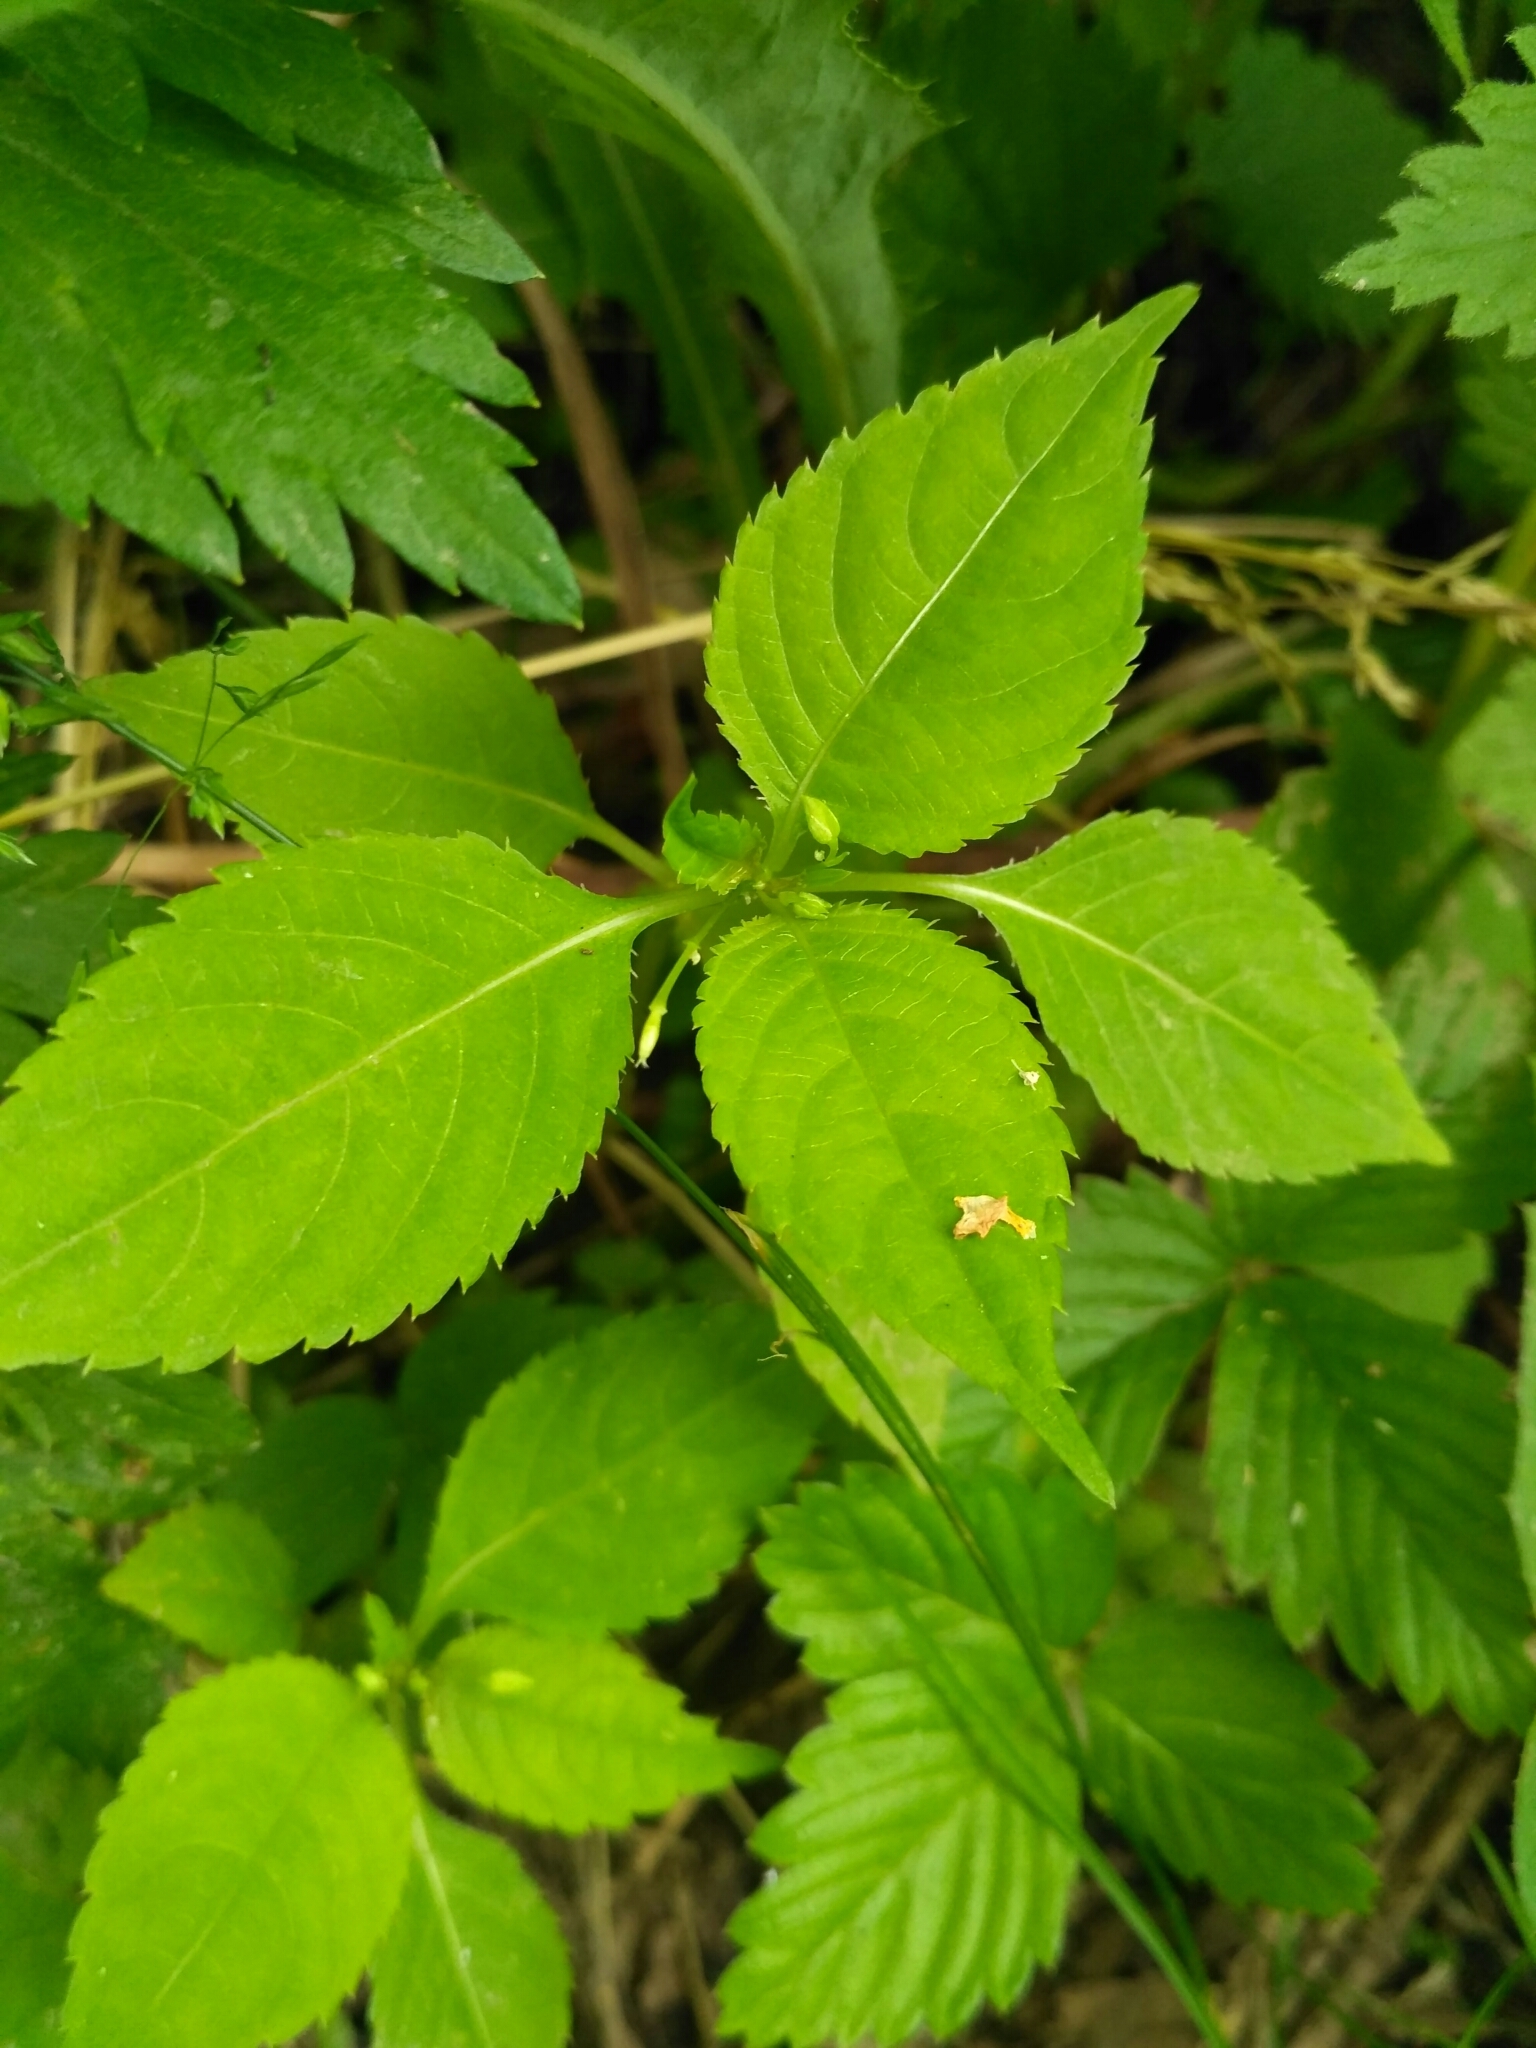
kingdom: Plantae
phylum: Tracheophyta
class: Magnoliopsida
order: Ericales
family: Balsaminaceae
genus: Impatiens
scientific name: Impatiens parviflora
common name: Small balsam
